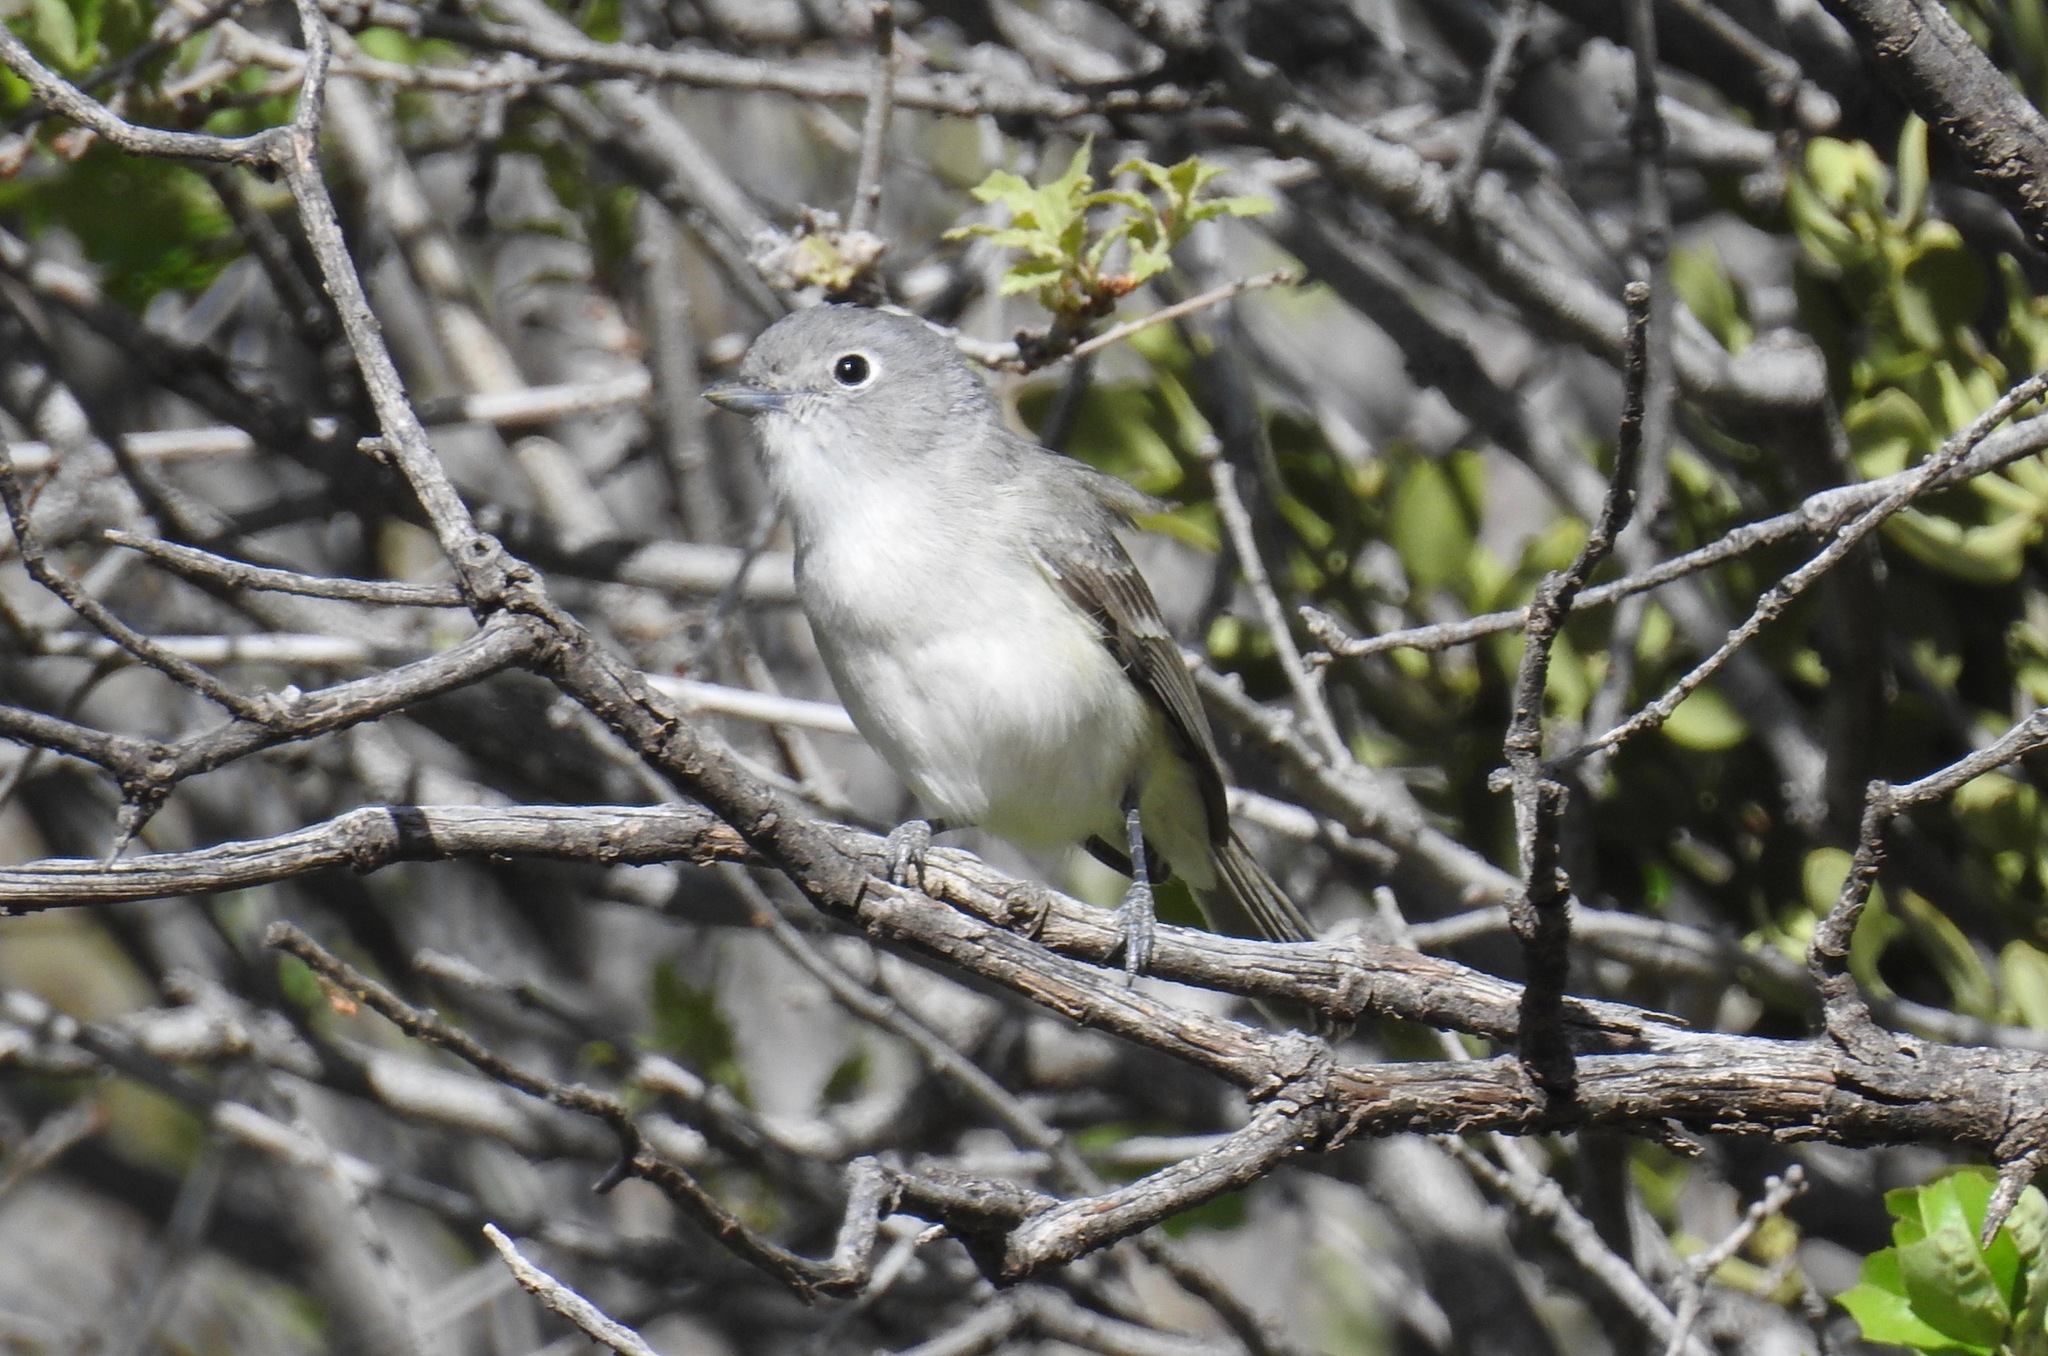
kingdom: Animalia
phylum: Chordata
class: Aves
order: Passeriformes
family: Vireonidae
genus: Vireo
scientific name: Vireo vicinior
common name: Gray vireo
